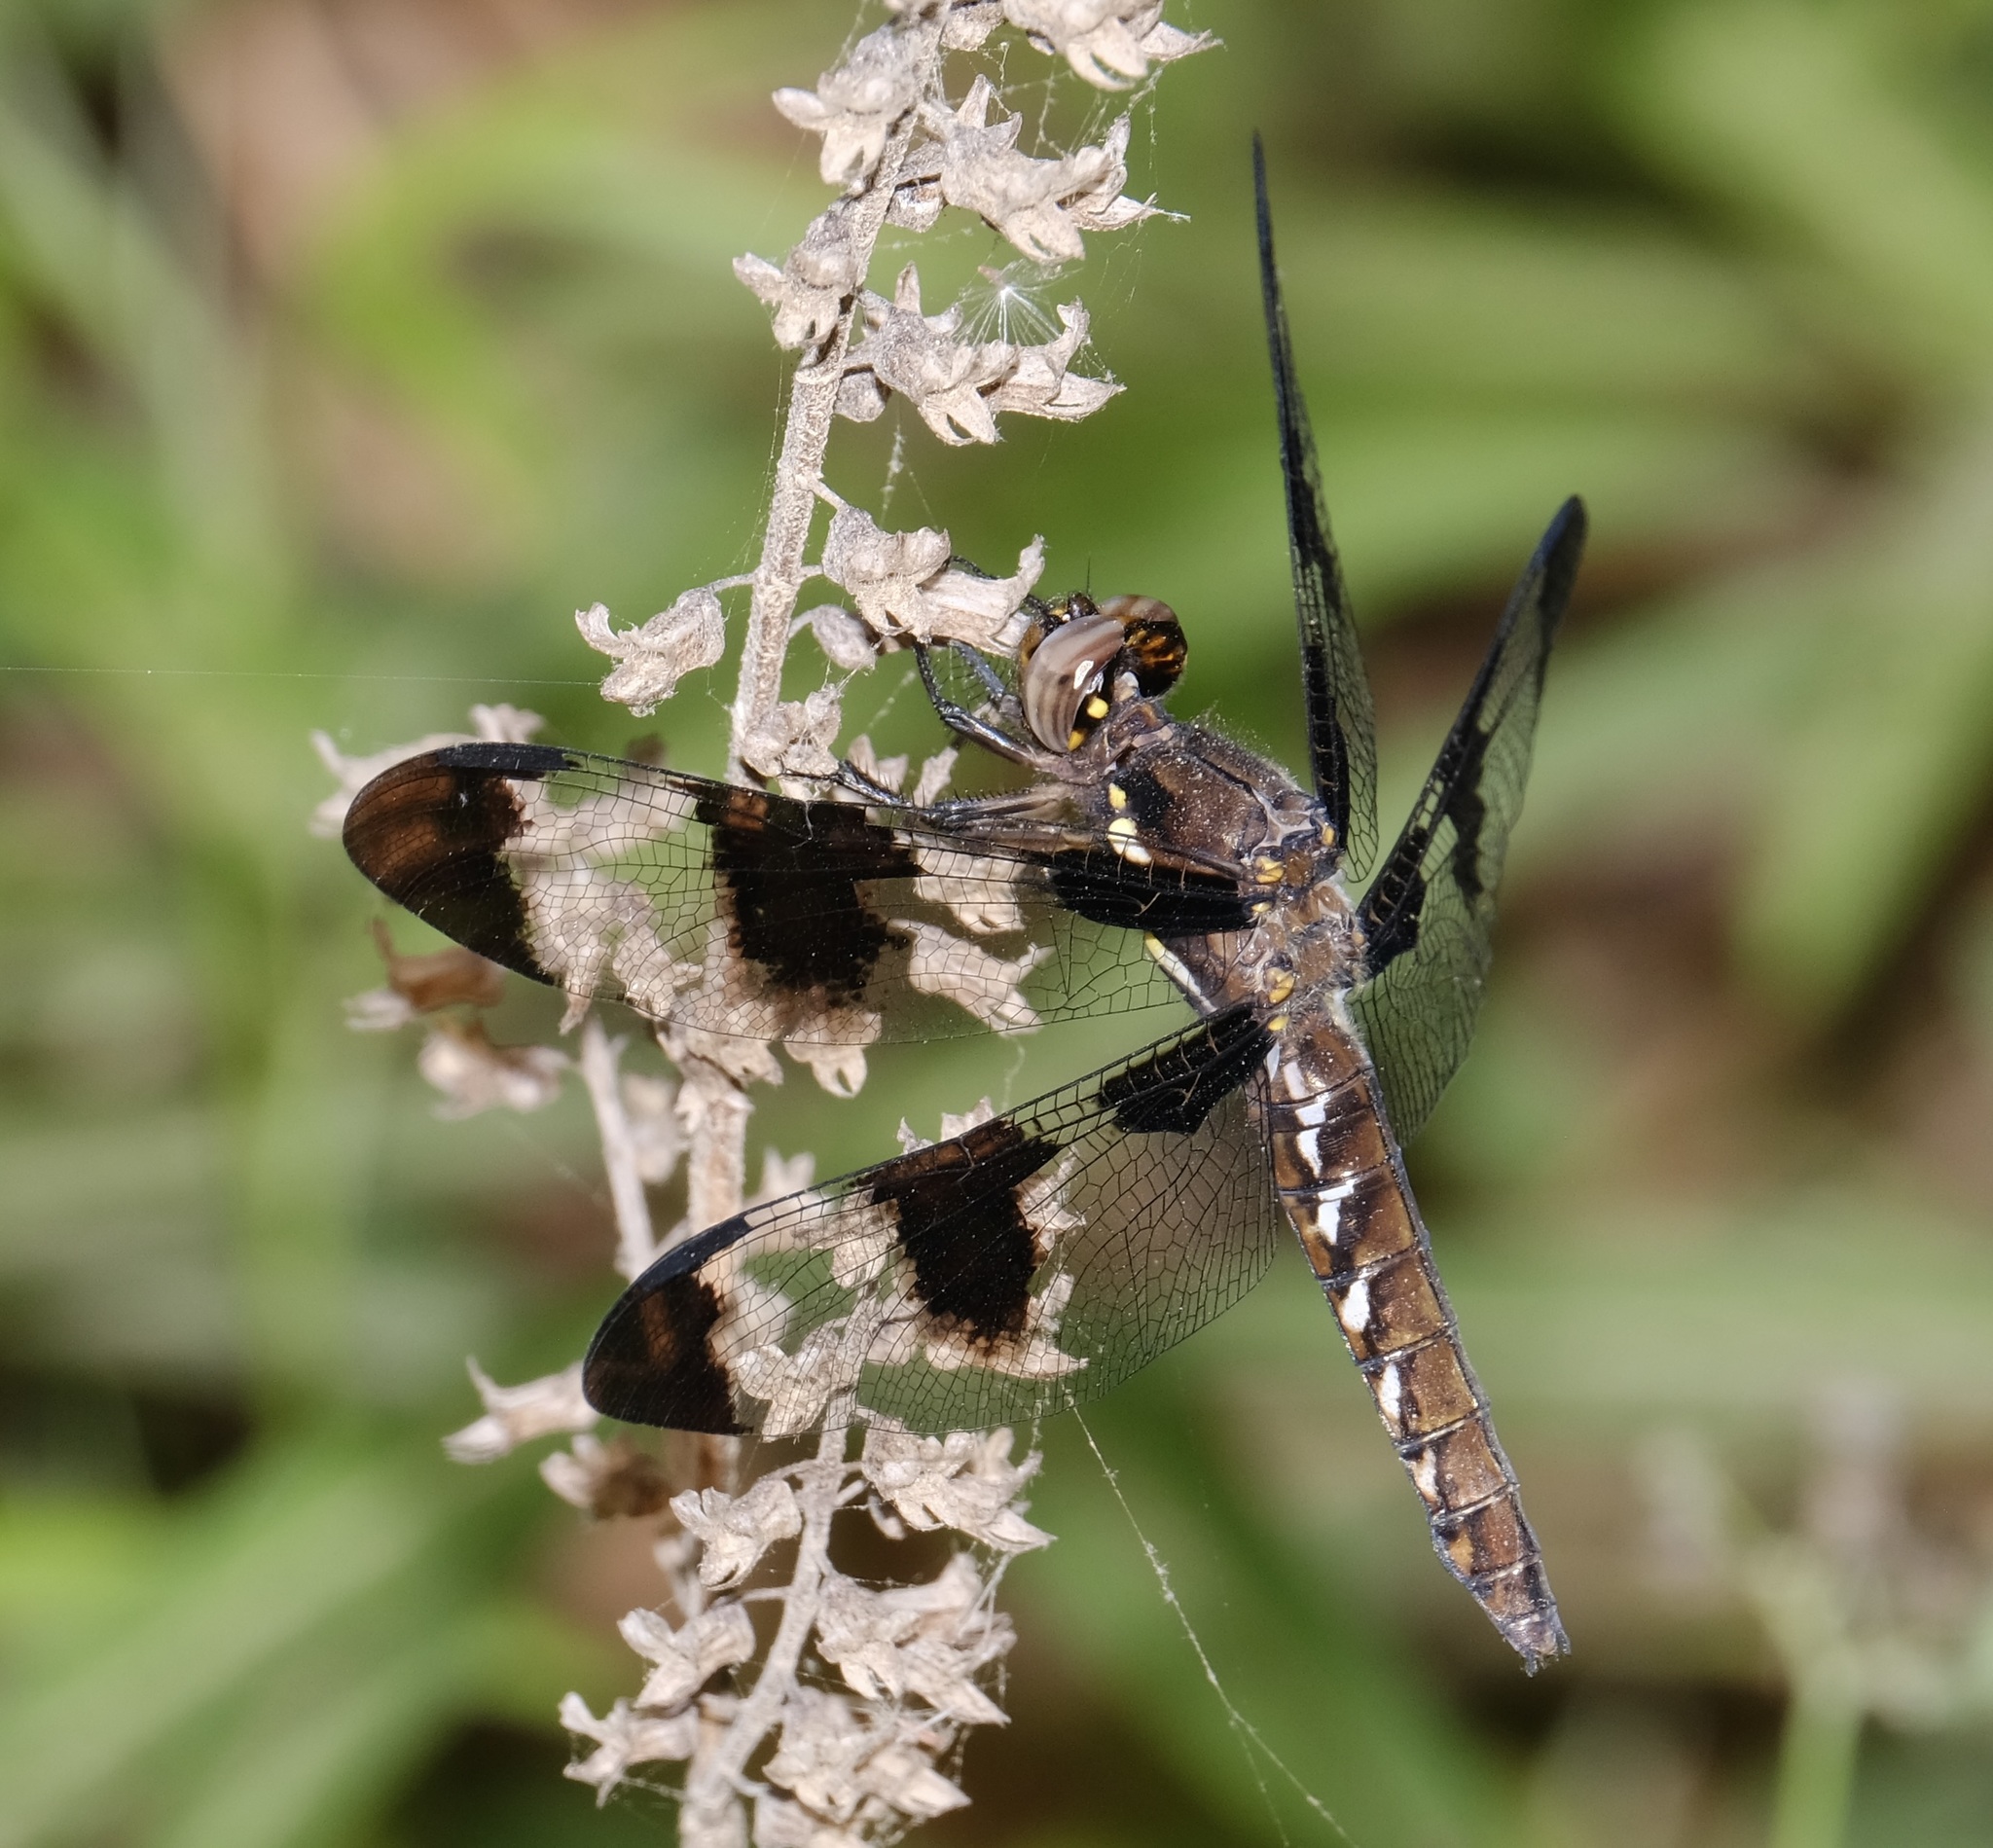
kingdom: Animalia
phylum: Arthropoda
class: Insecta
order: Odonata
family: Libellulidae
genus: Plathemis
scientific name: Plathemis lydia
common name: Common whitetail
